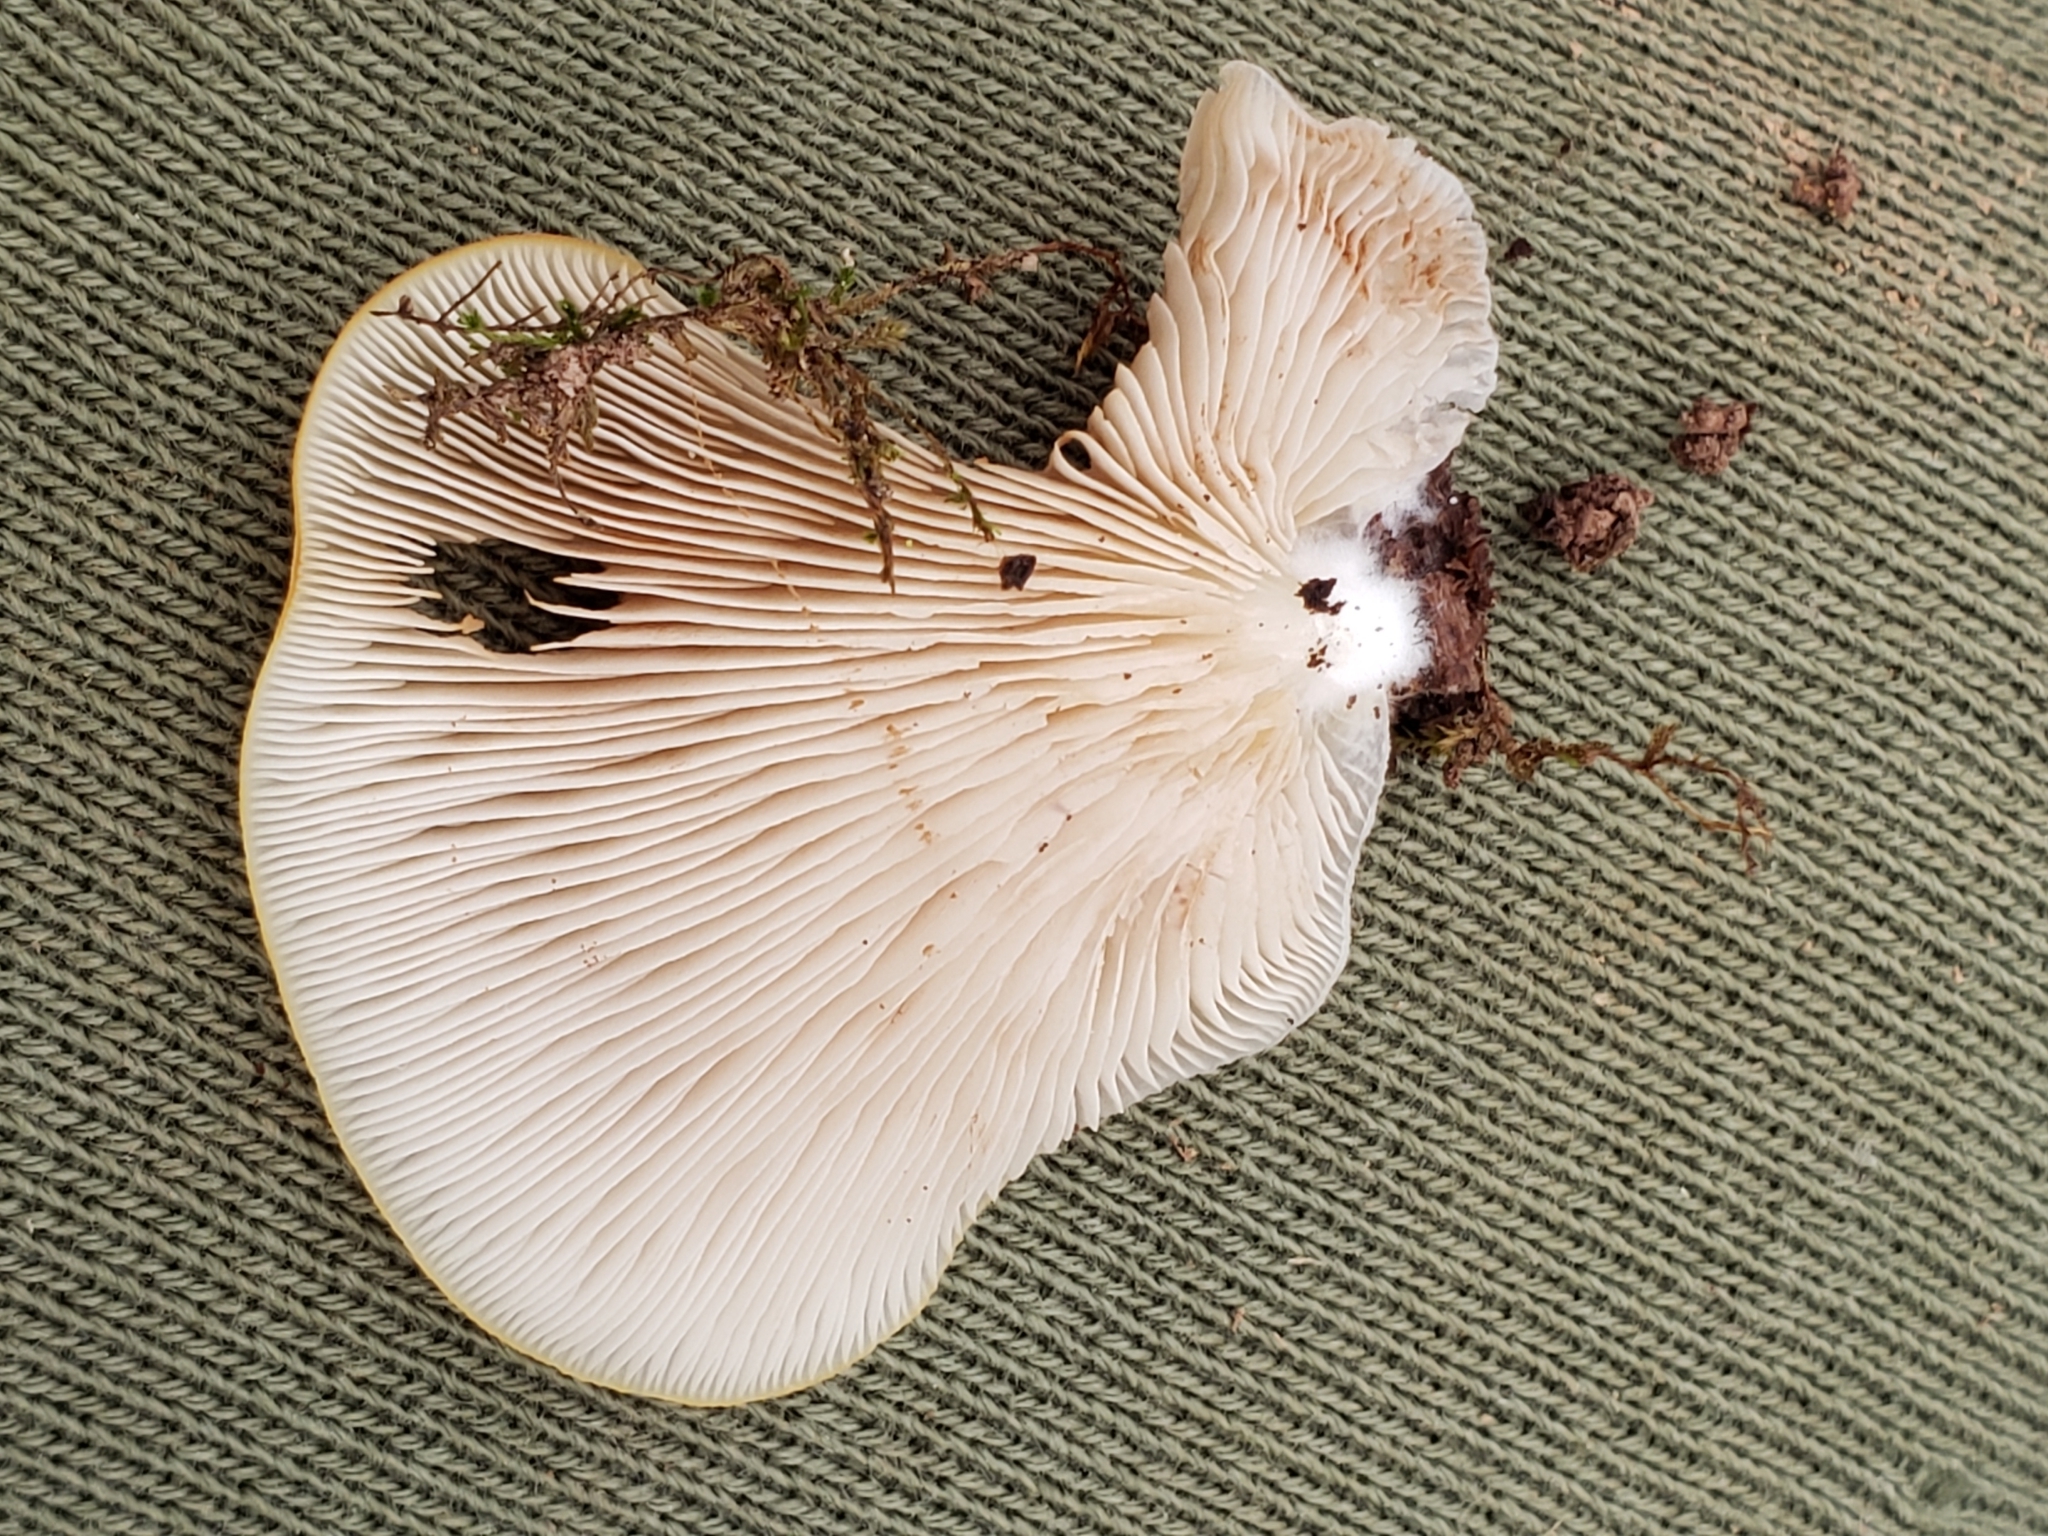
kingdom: Fungi
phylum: Basidiomycota
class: Agaricomycetes
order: Agaricales
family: Crepidotaceae
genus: Crepidotus
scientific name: Crepidotus applanatus
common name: Flat crep
